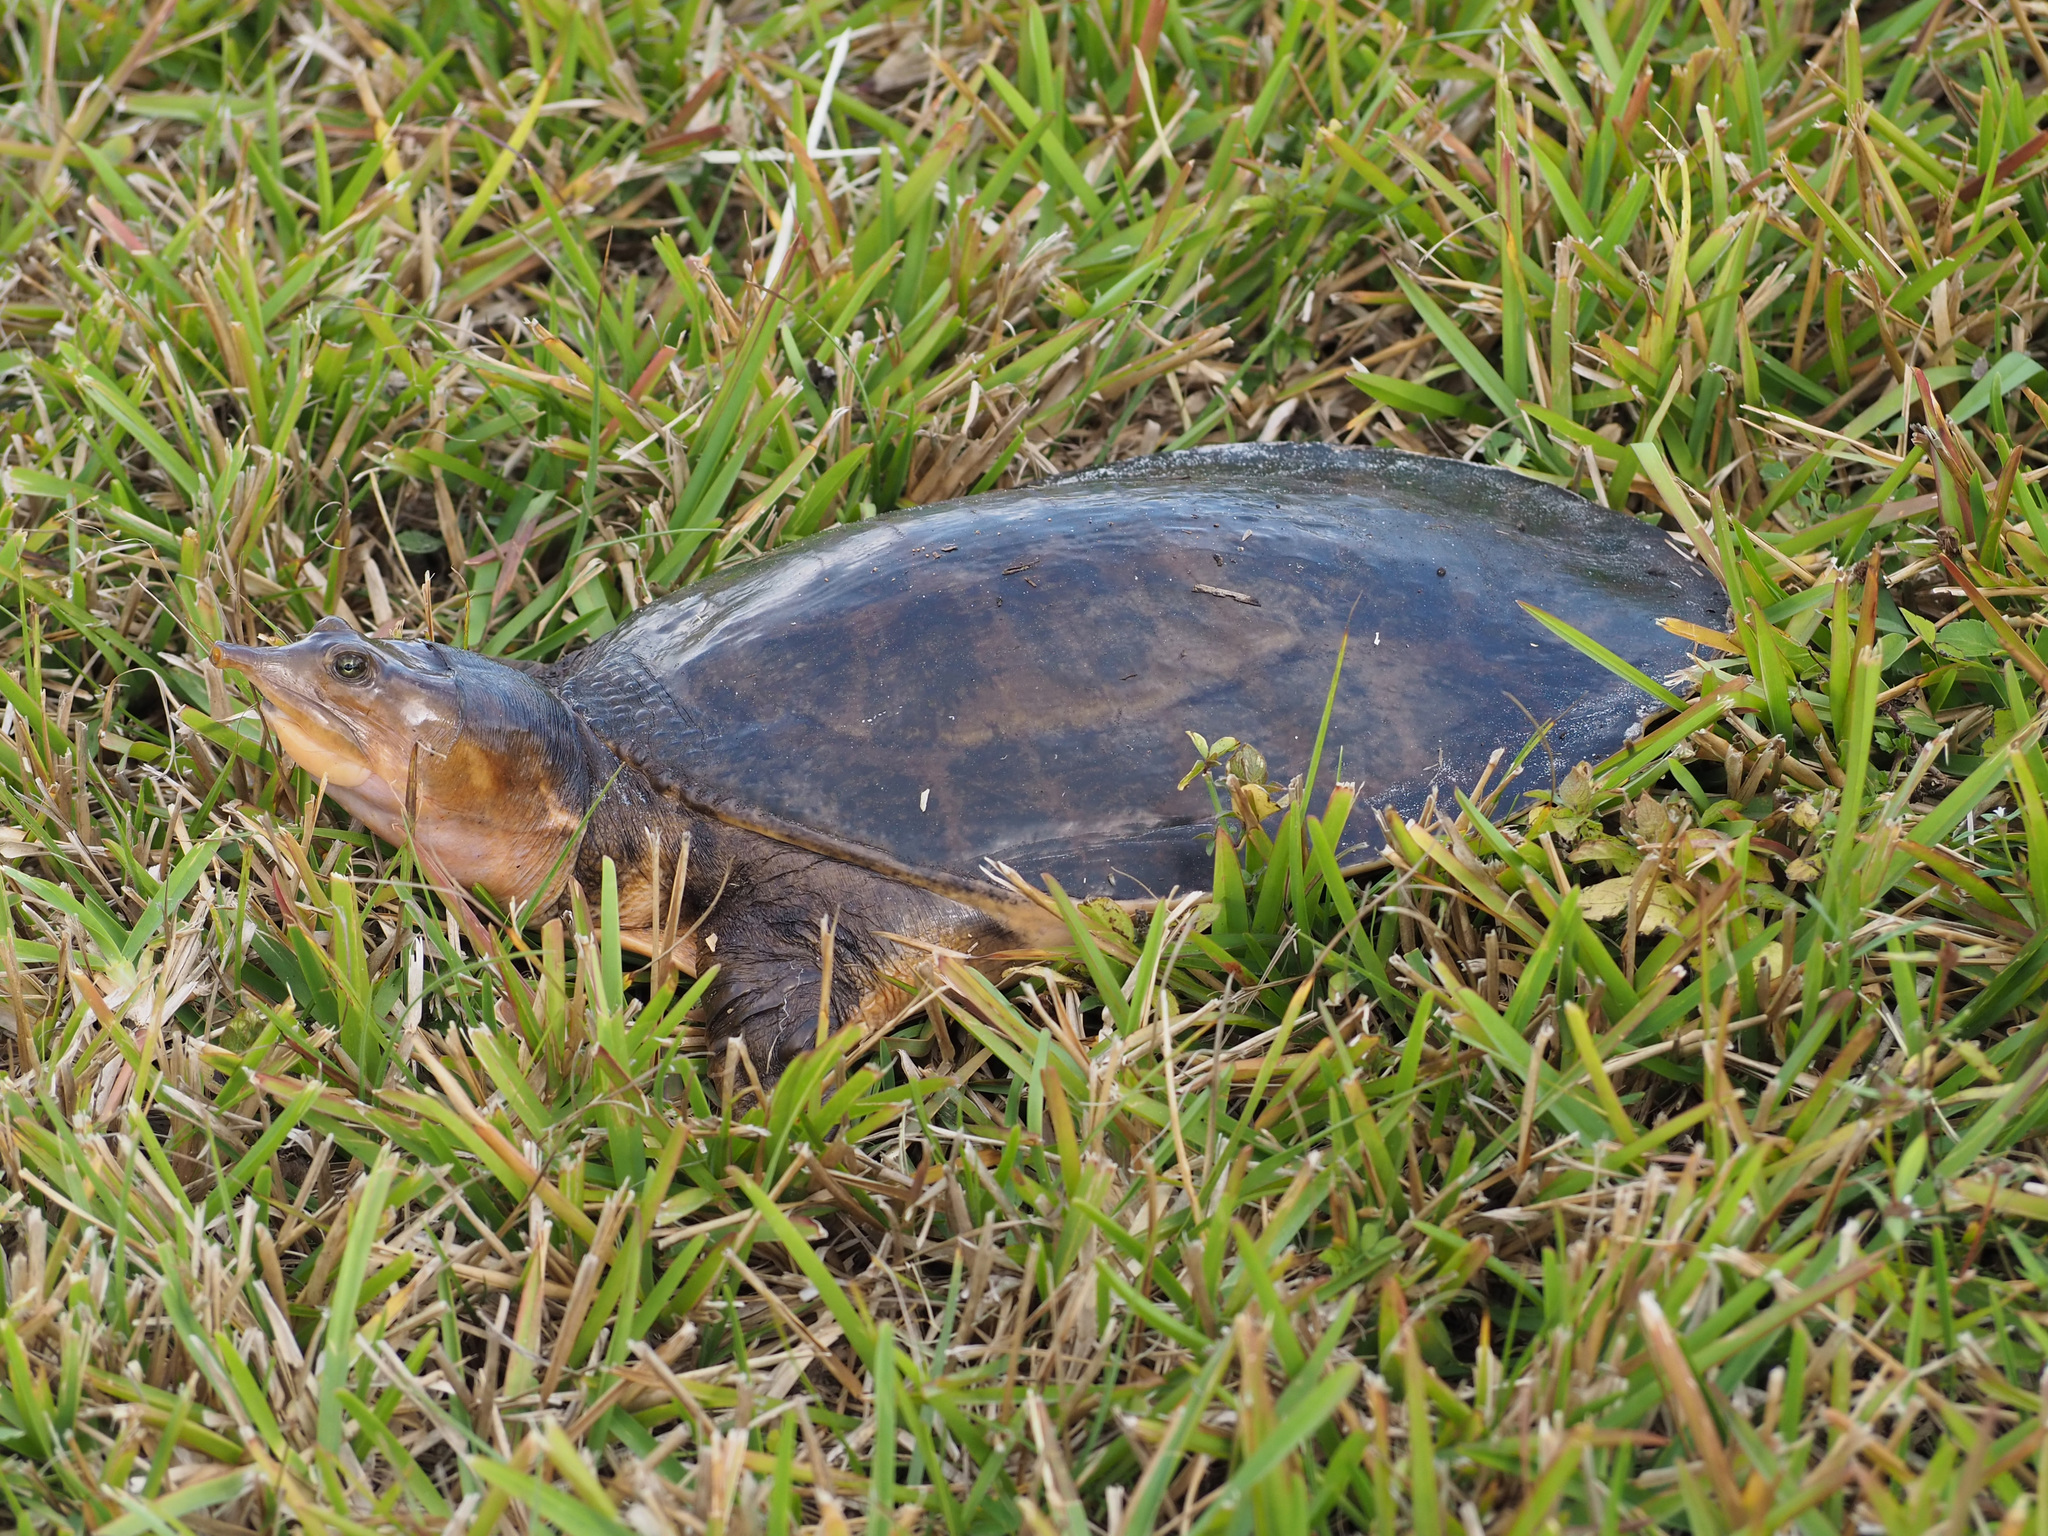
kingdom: Animalia
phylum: Chordata
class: Testudines
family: Trionychidae
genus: Apalone
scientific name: Apalone ferox
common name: Florida softshell turtle
